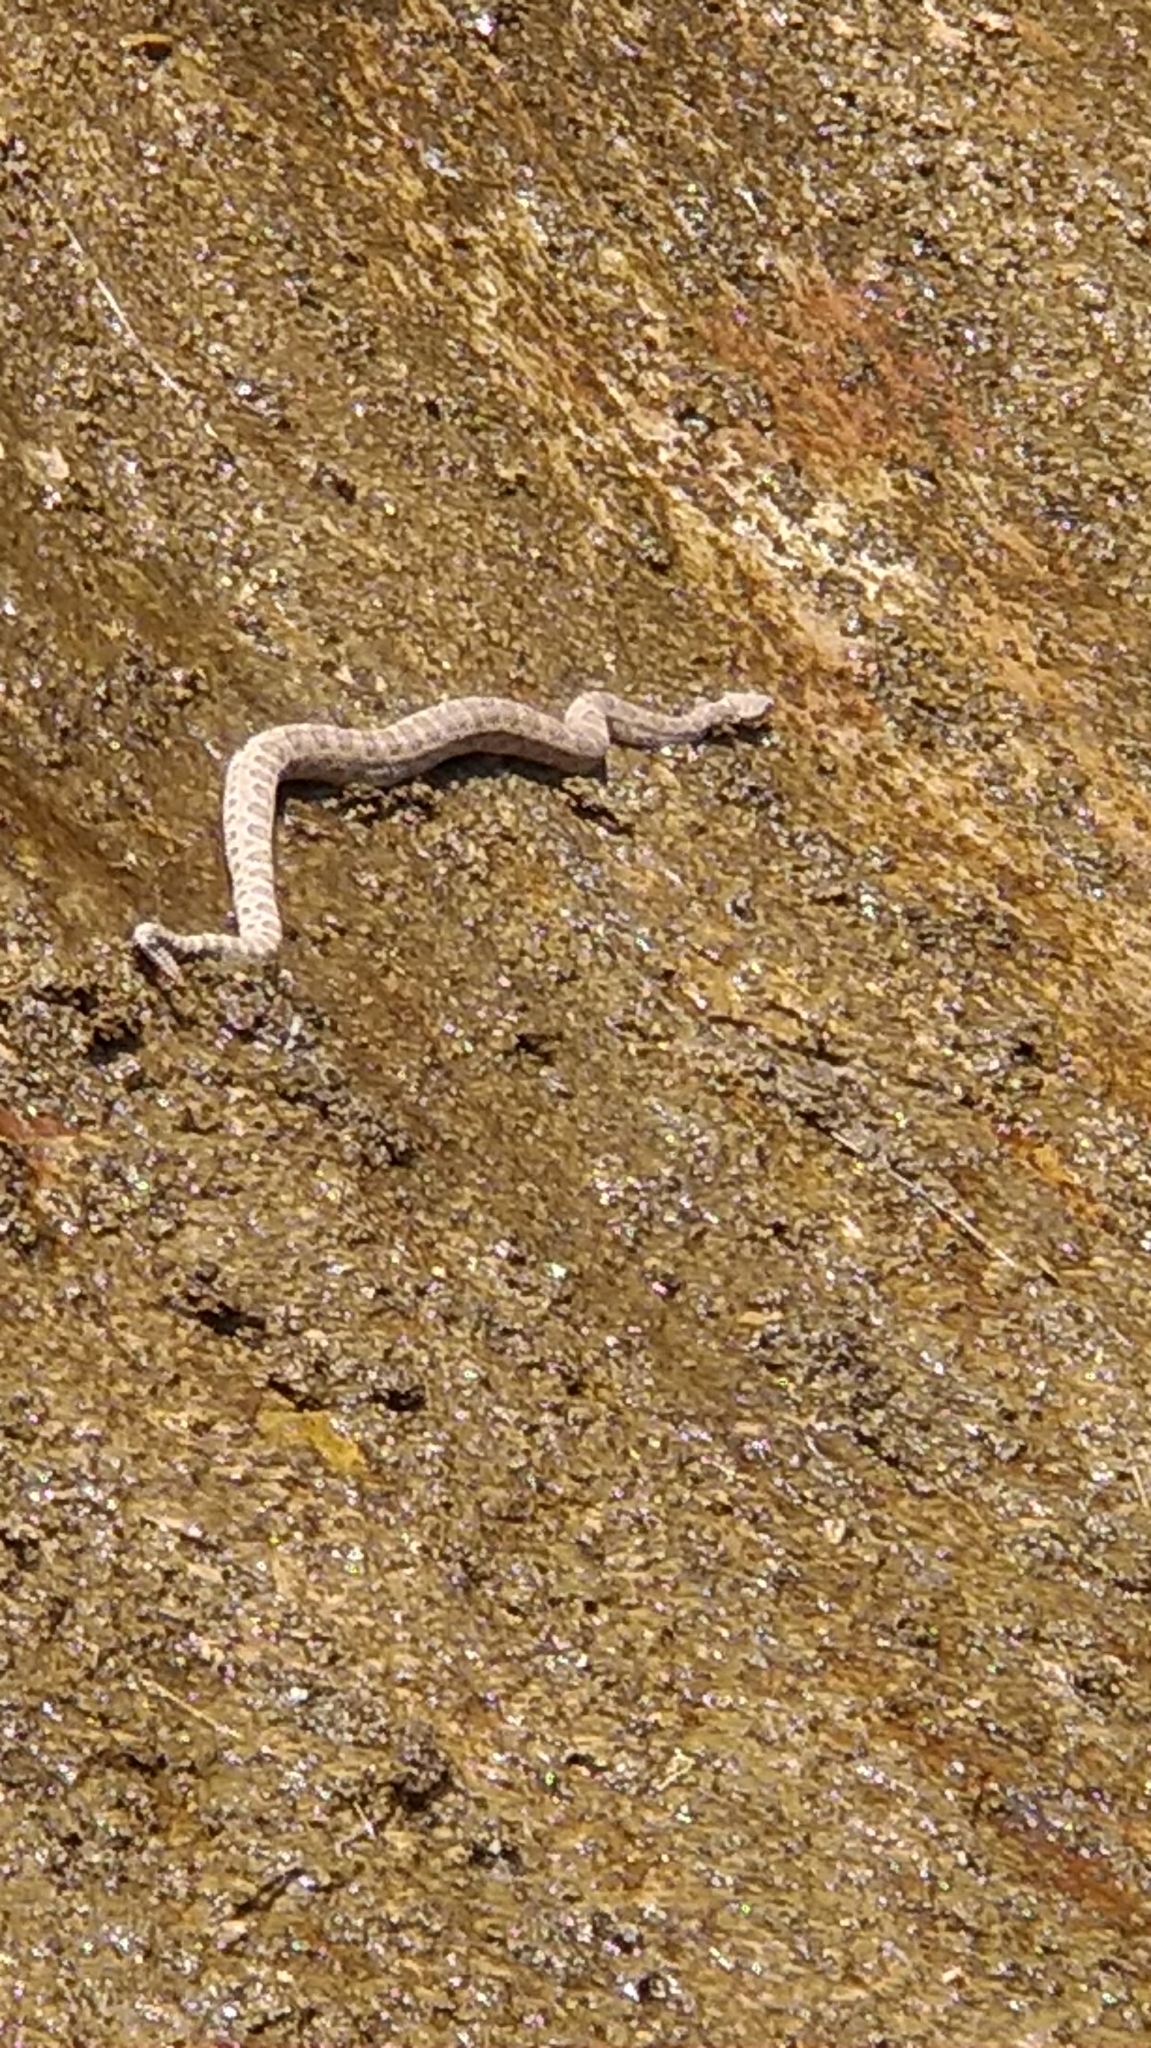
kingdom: Animalia
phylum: Chordata
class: Squamata
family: Viperidae
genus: Crotalus
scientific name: Crotalus oreganus
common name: Abyssus
